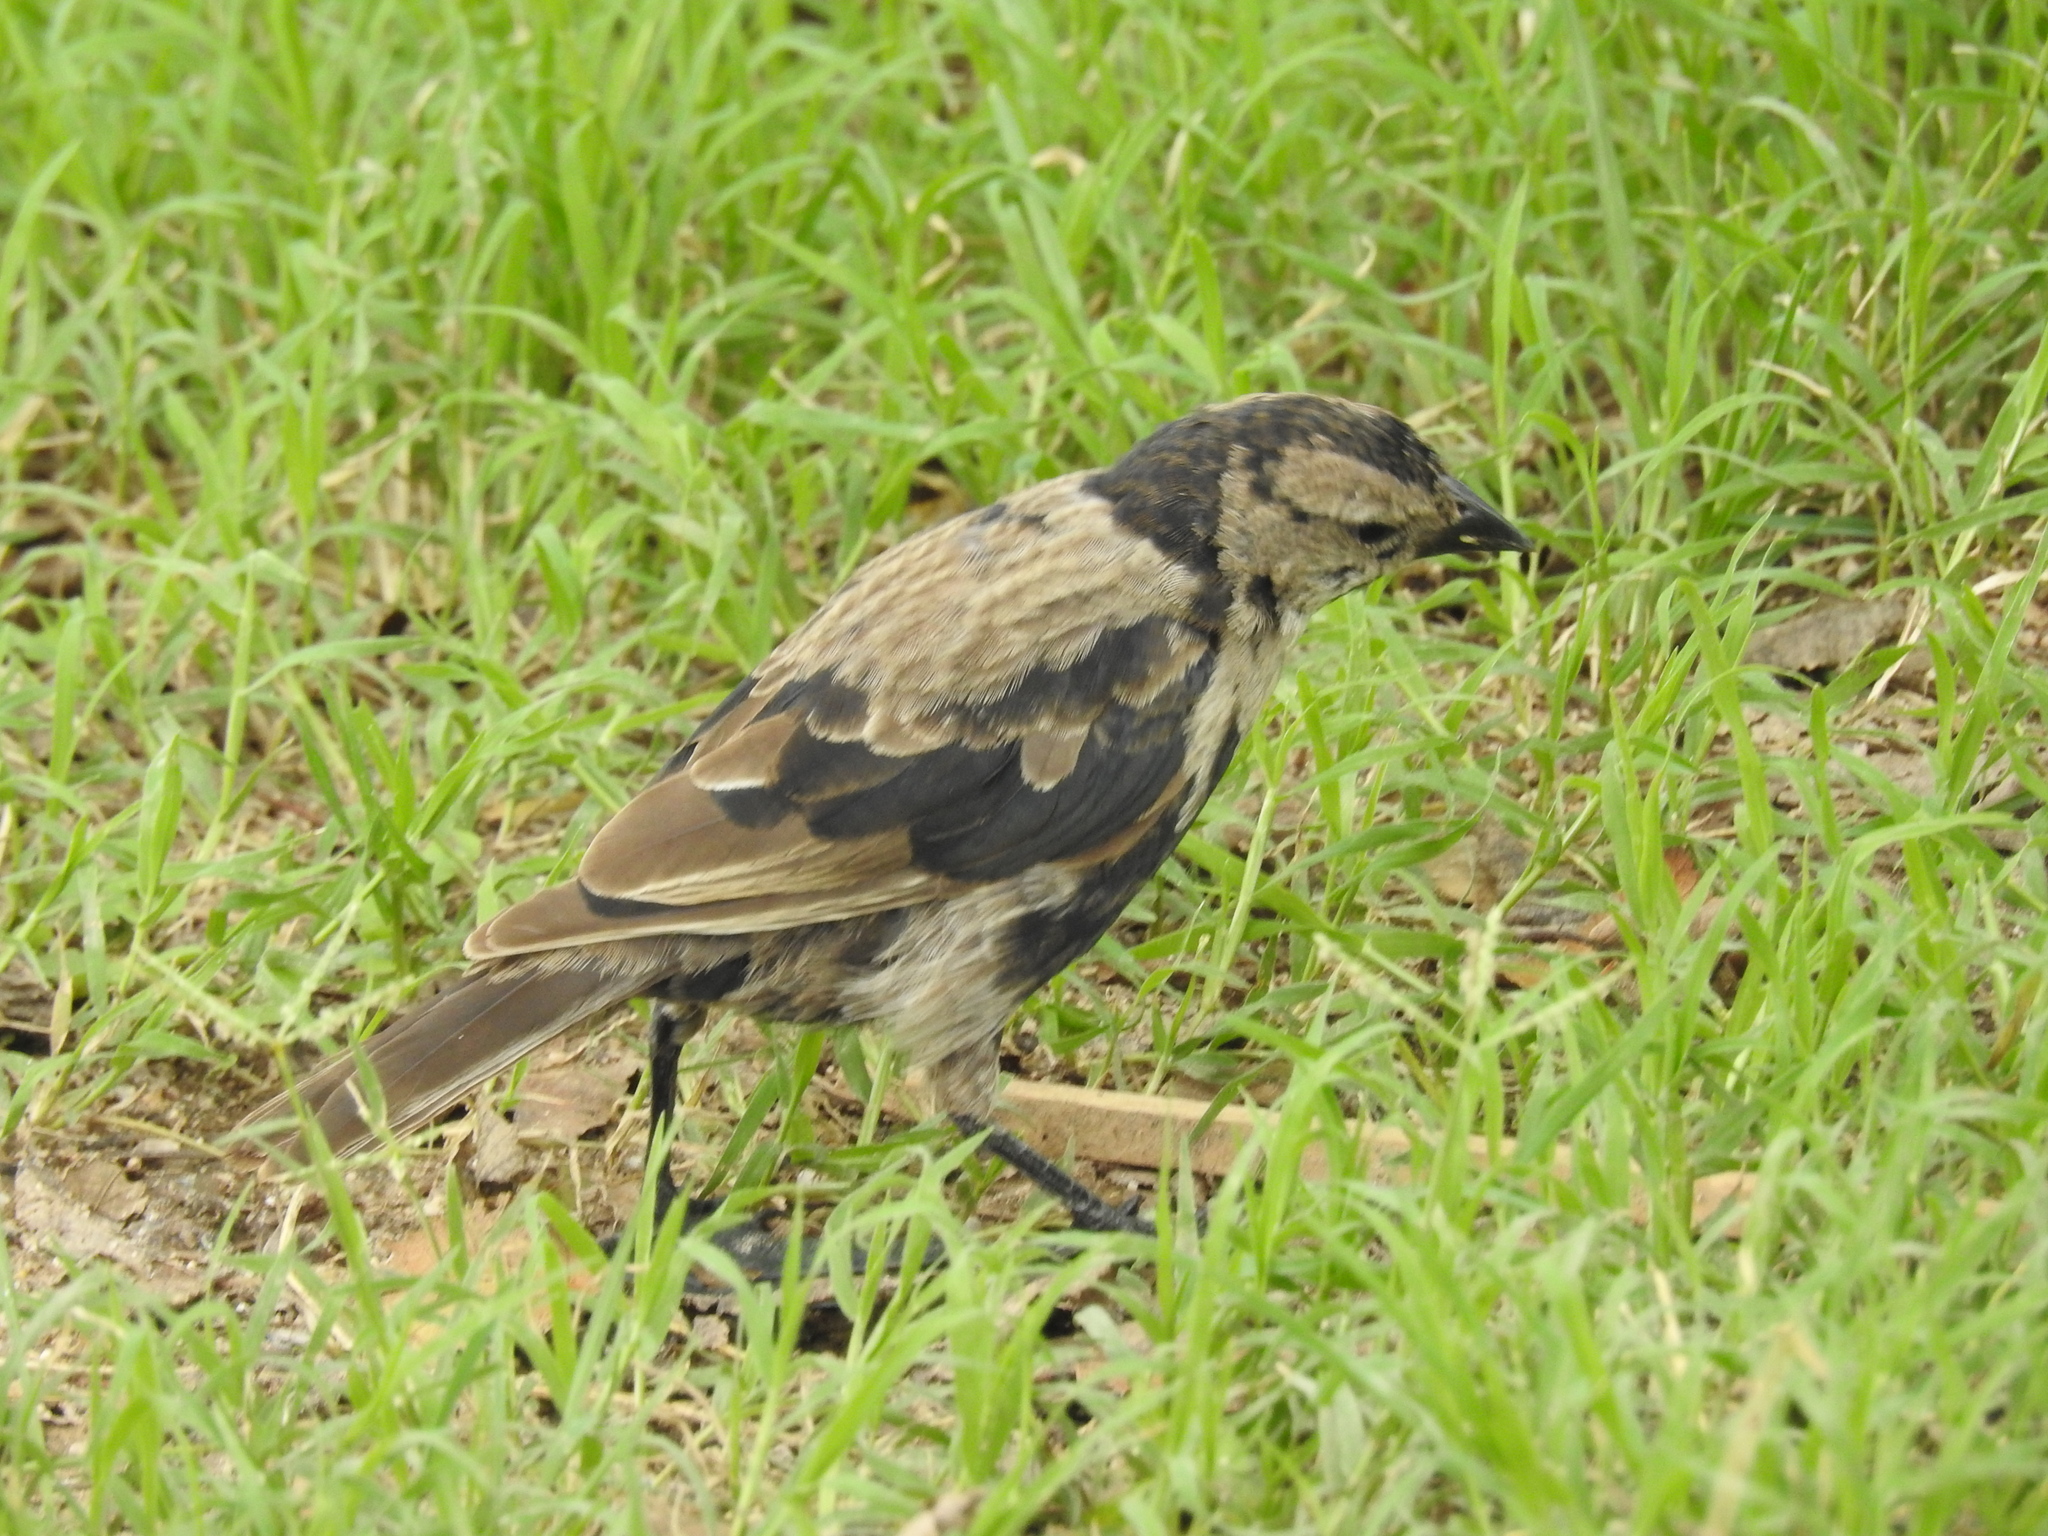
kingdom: Animalia
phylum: Chordata
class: Aves
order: Passeriformes
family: Icteridae
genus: Molothrus
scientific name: Molothrus rufoaxillaris
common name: Screaming cowbird
